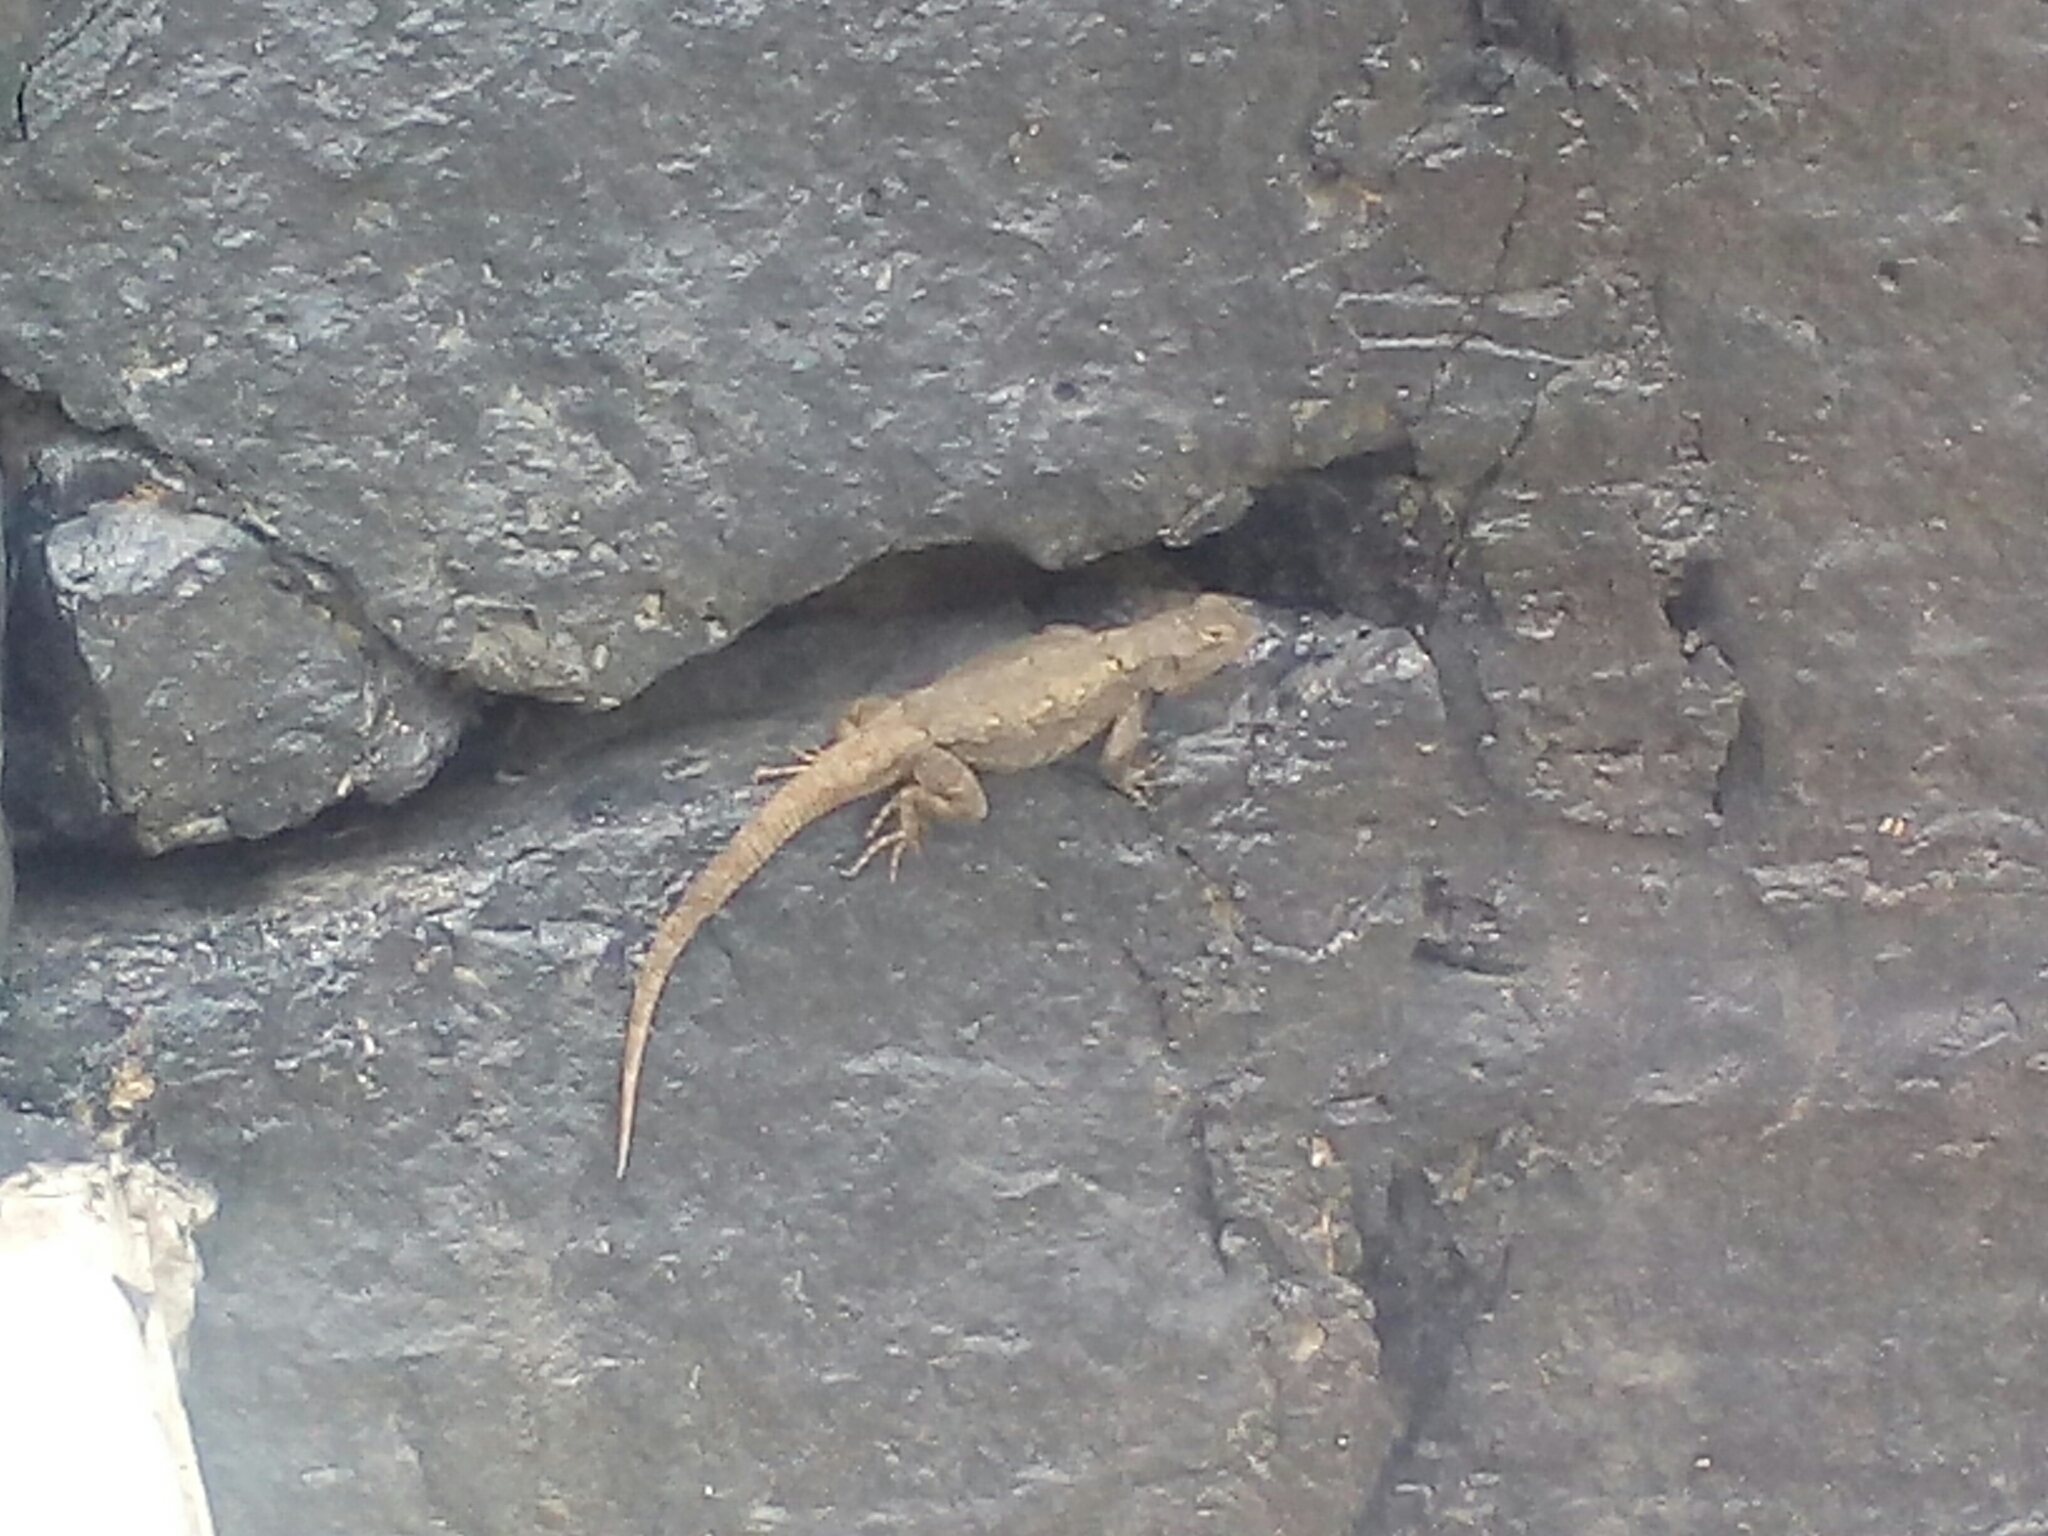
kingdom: Animalia
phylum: Chordata
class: Squamata
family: Phrynosomatidae
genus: Sceloporus
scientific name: Sceloporus grammicus
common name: Mesquite lizard
